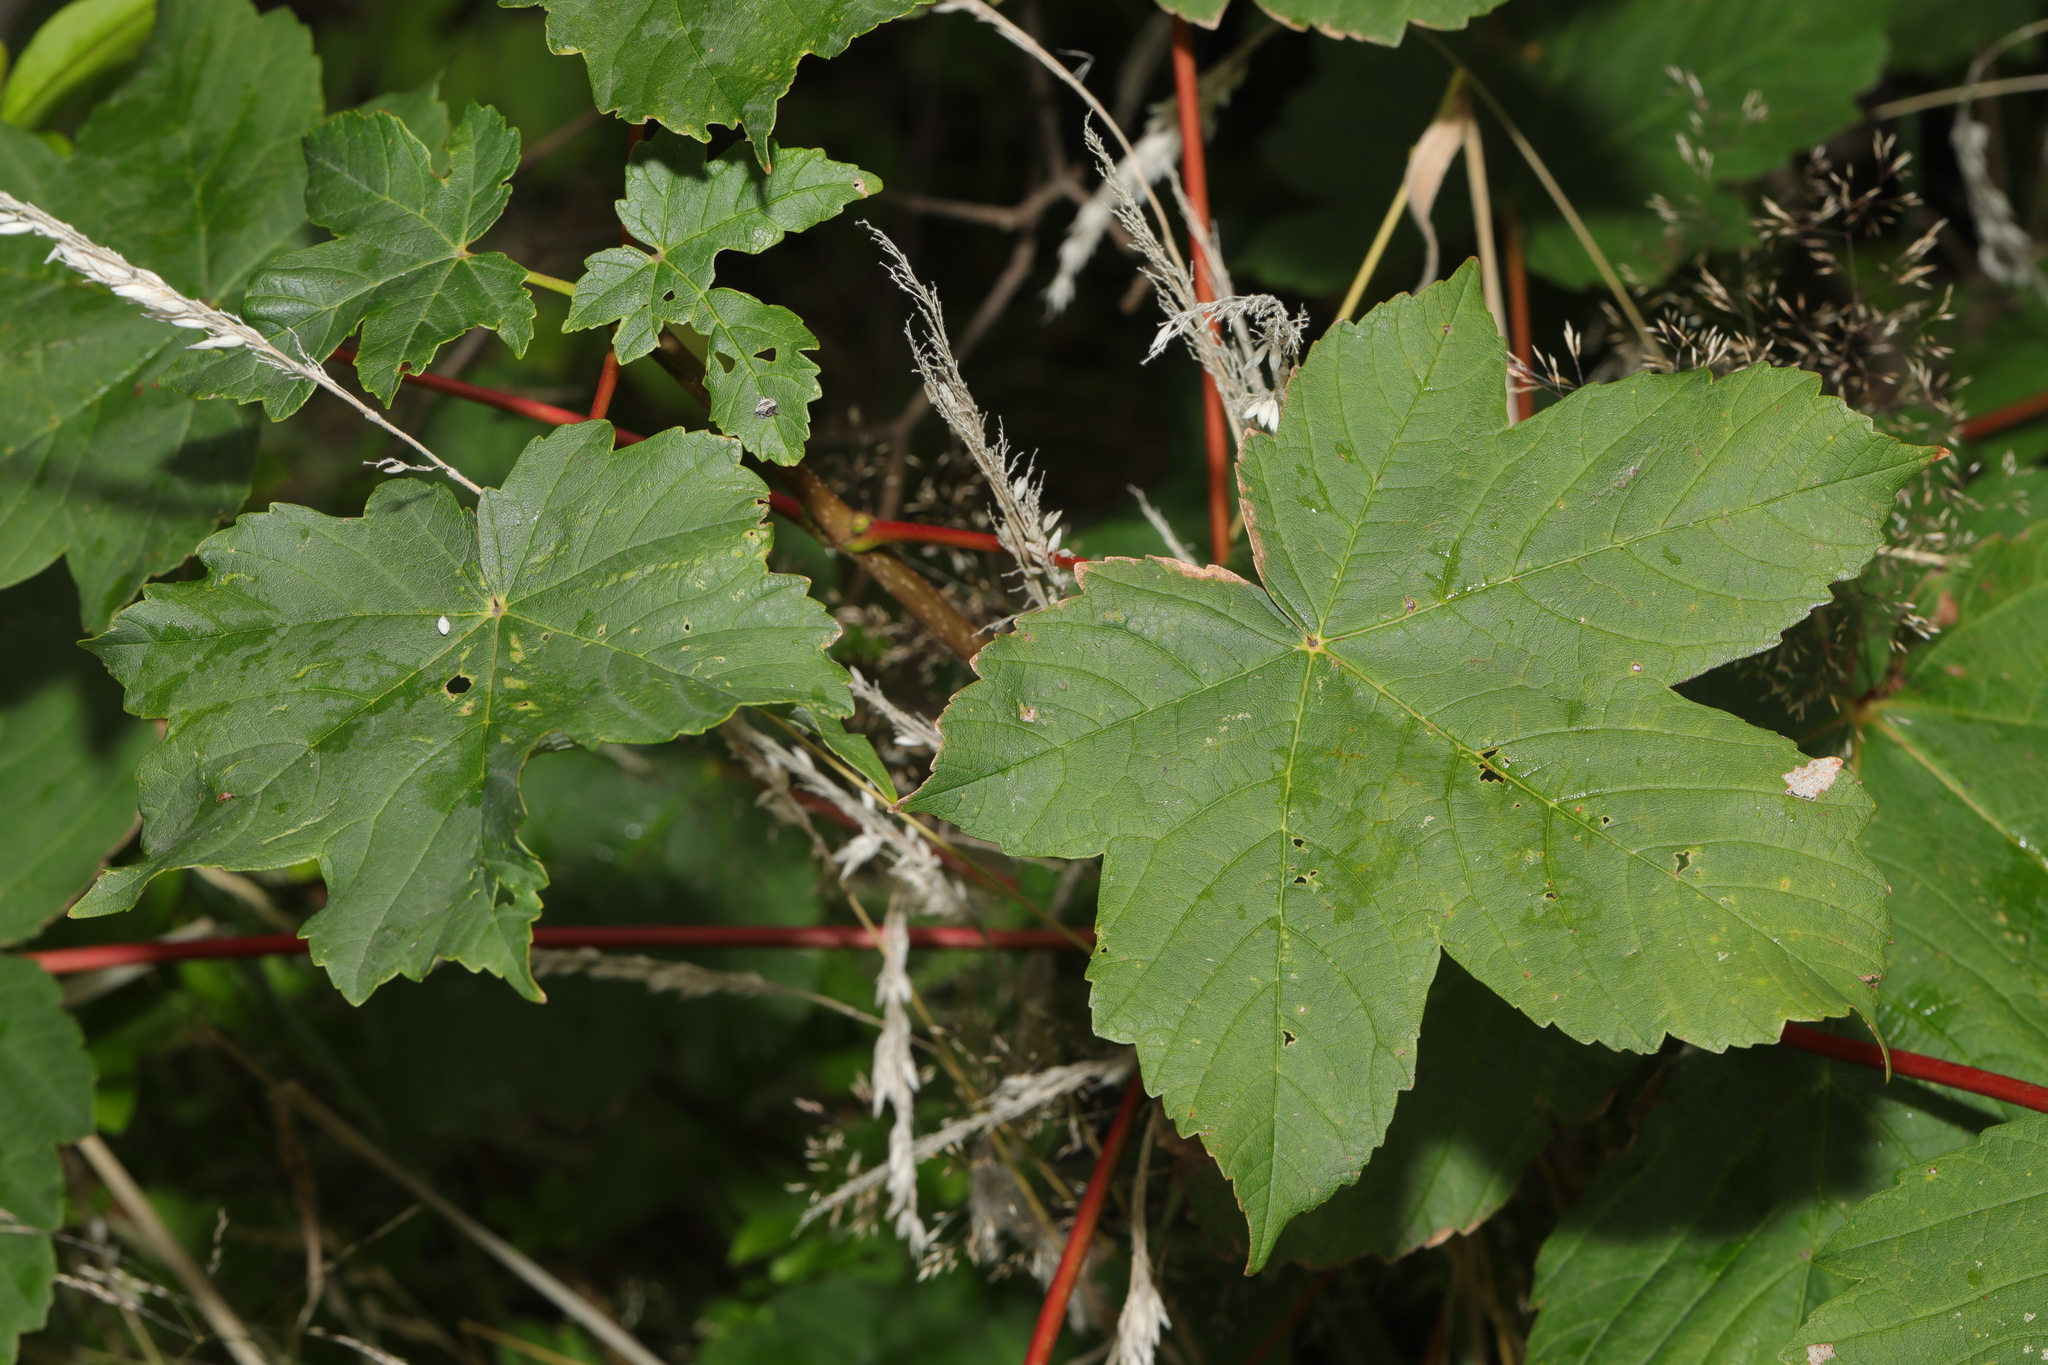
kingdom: Plantae
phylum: Tracheophyta
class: Magnoliopsida
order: Sapindales
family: Sapindaceae
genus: Acer
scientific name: Acer pseudoplatanus
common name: Sycamore
